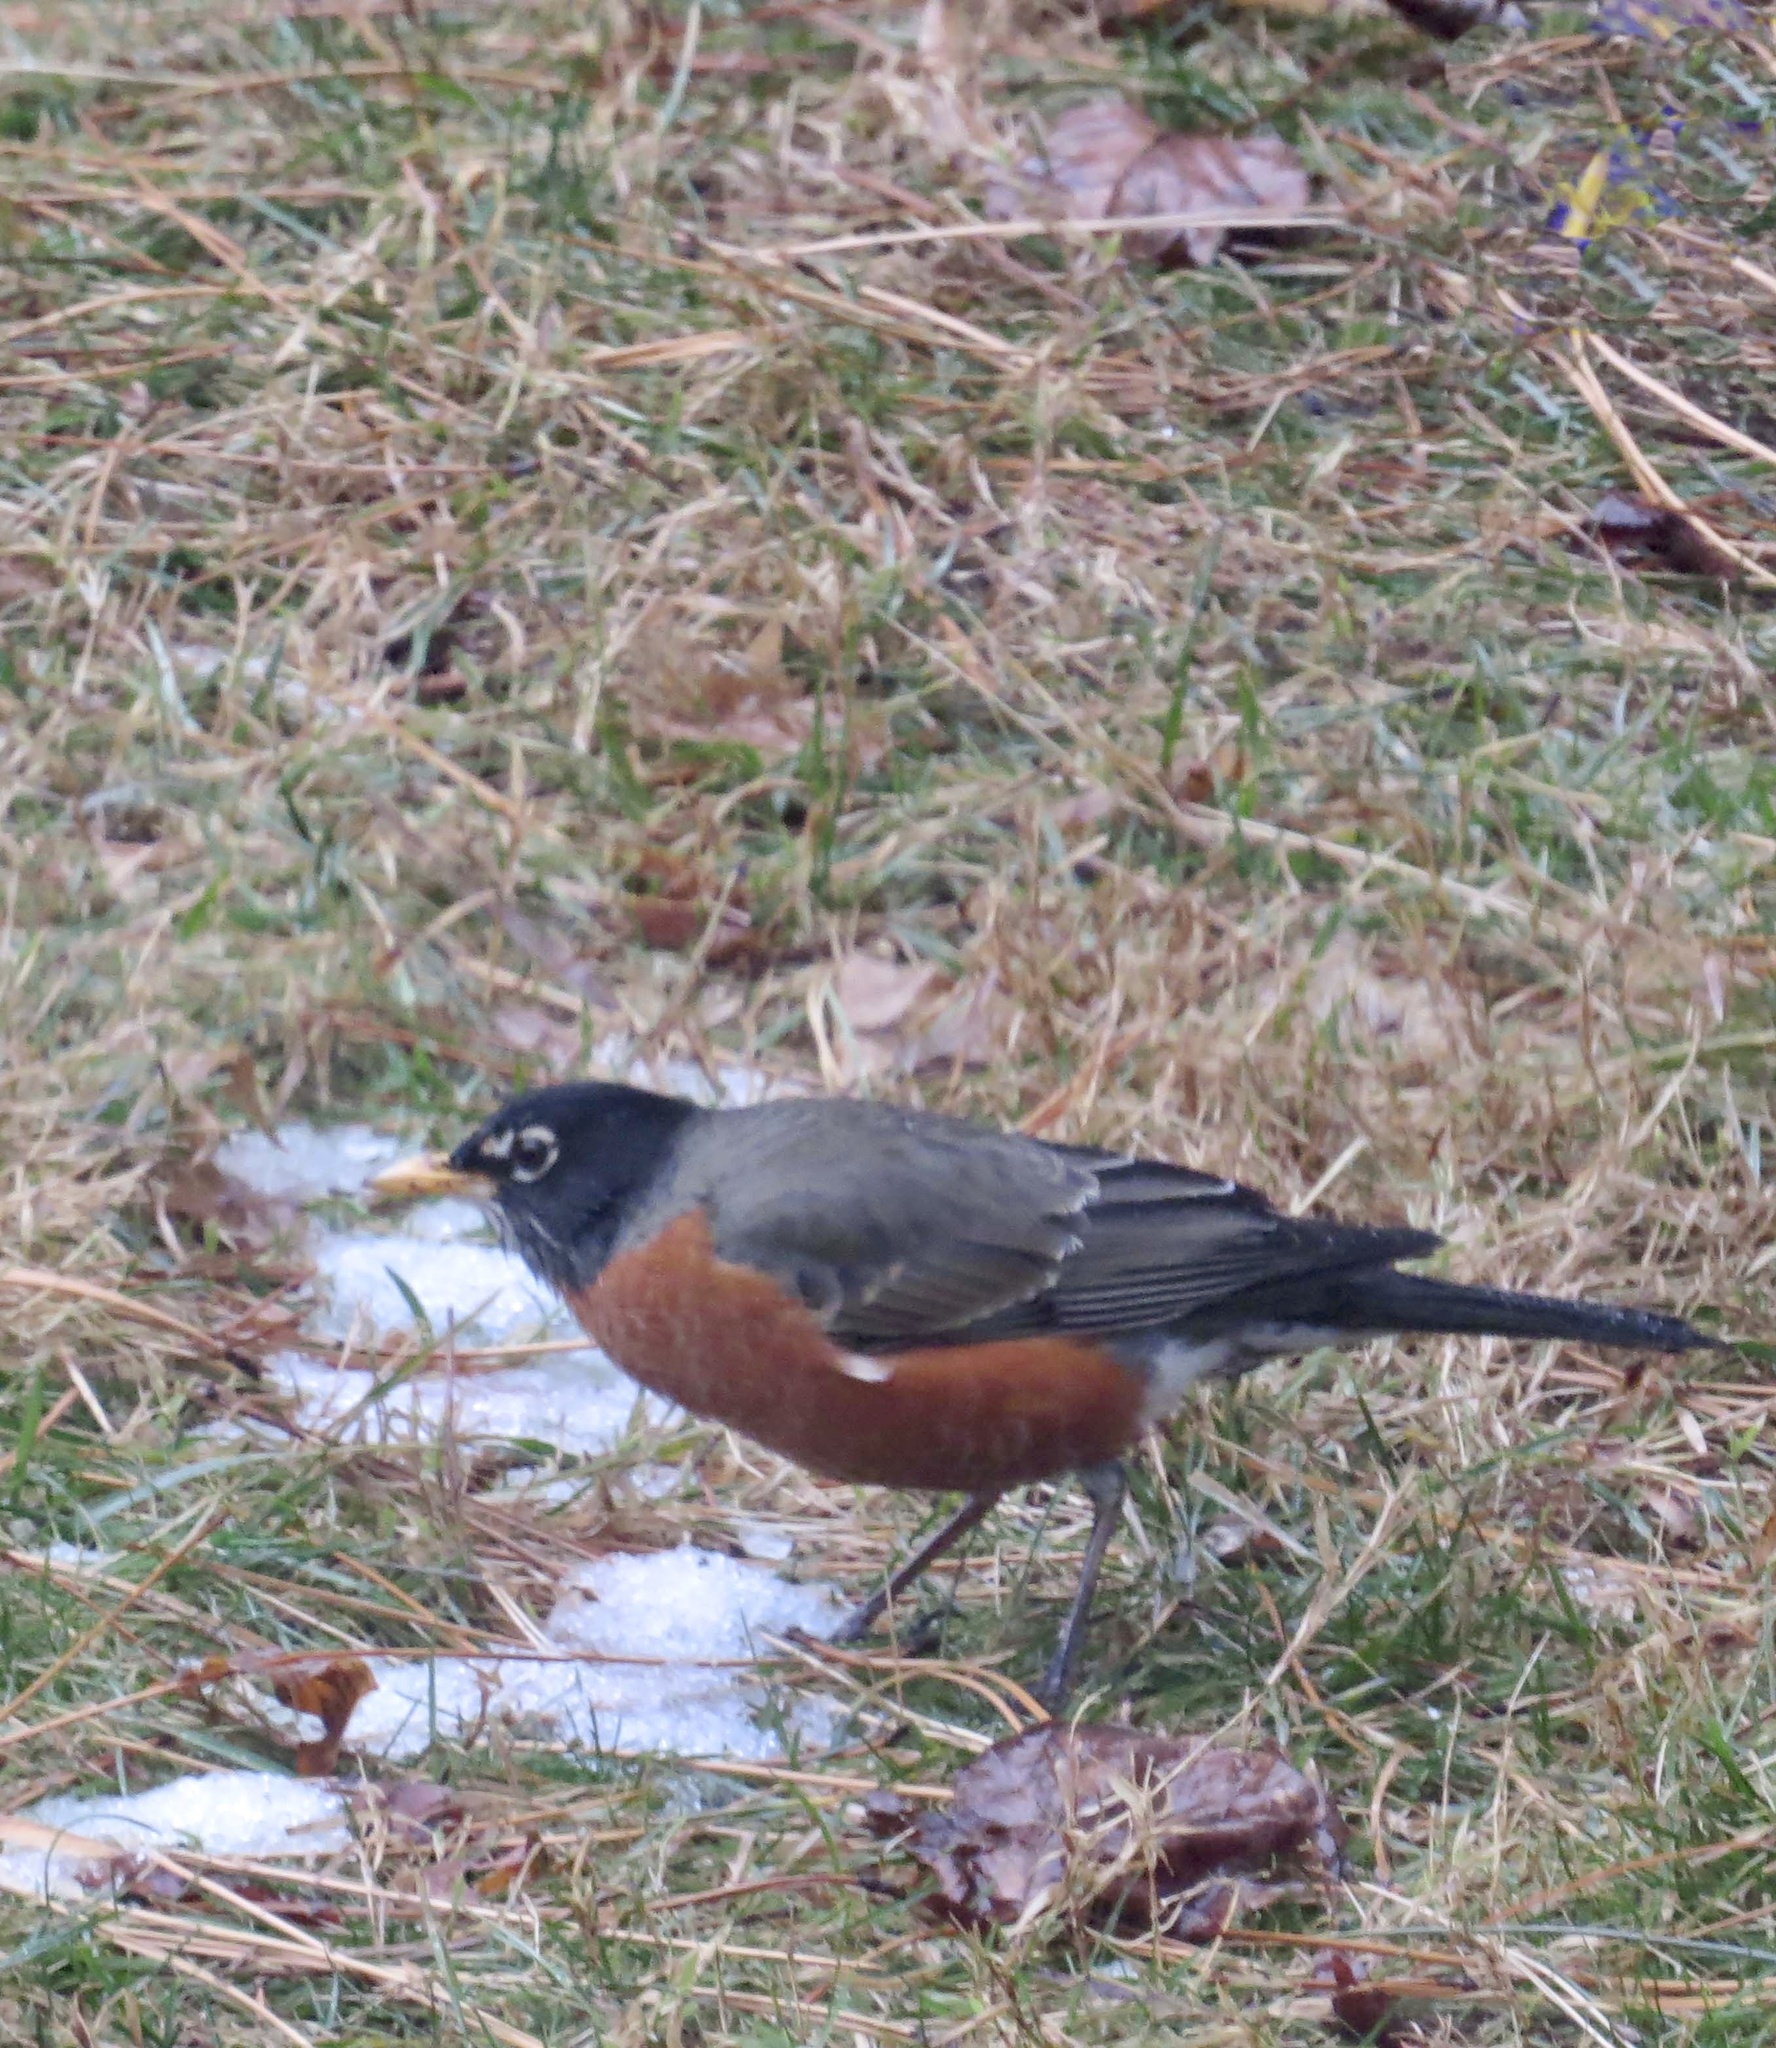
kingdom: Animalia
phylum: Chordata
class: Aves
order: Passeriformes
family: Turdidae
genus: Turdus
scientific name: Turdus migratorius
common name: American robin
